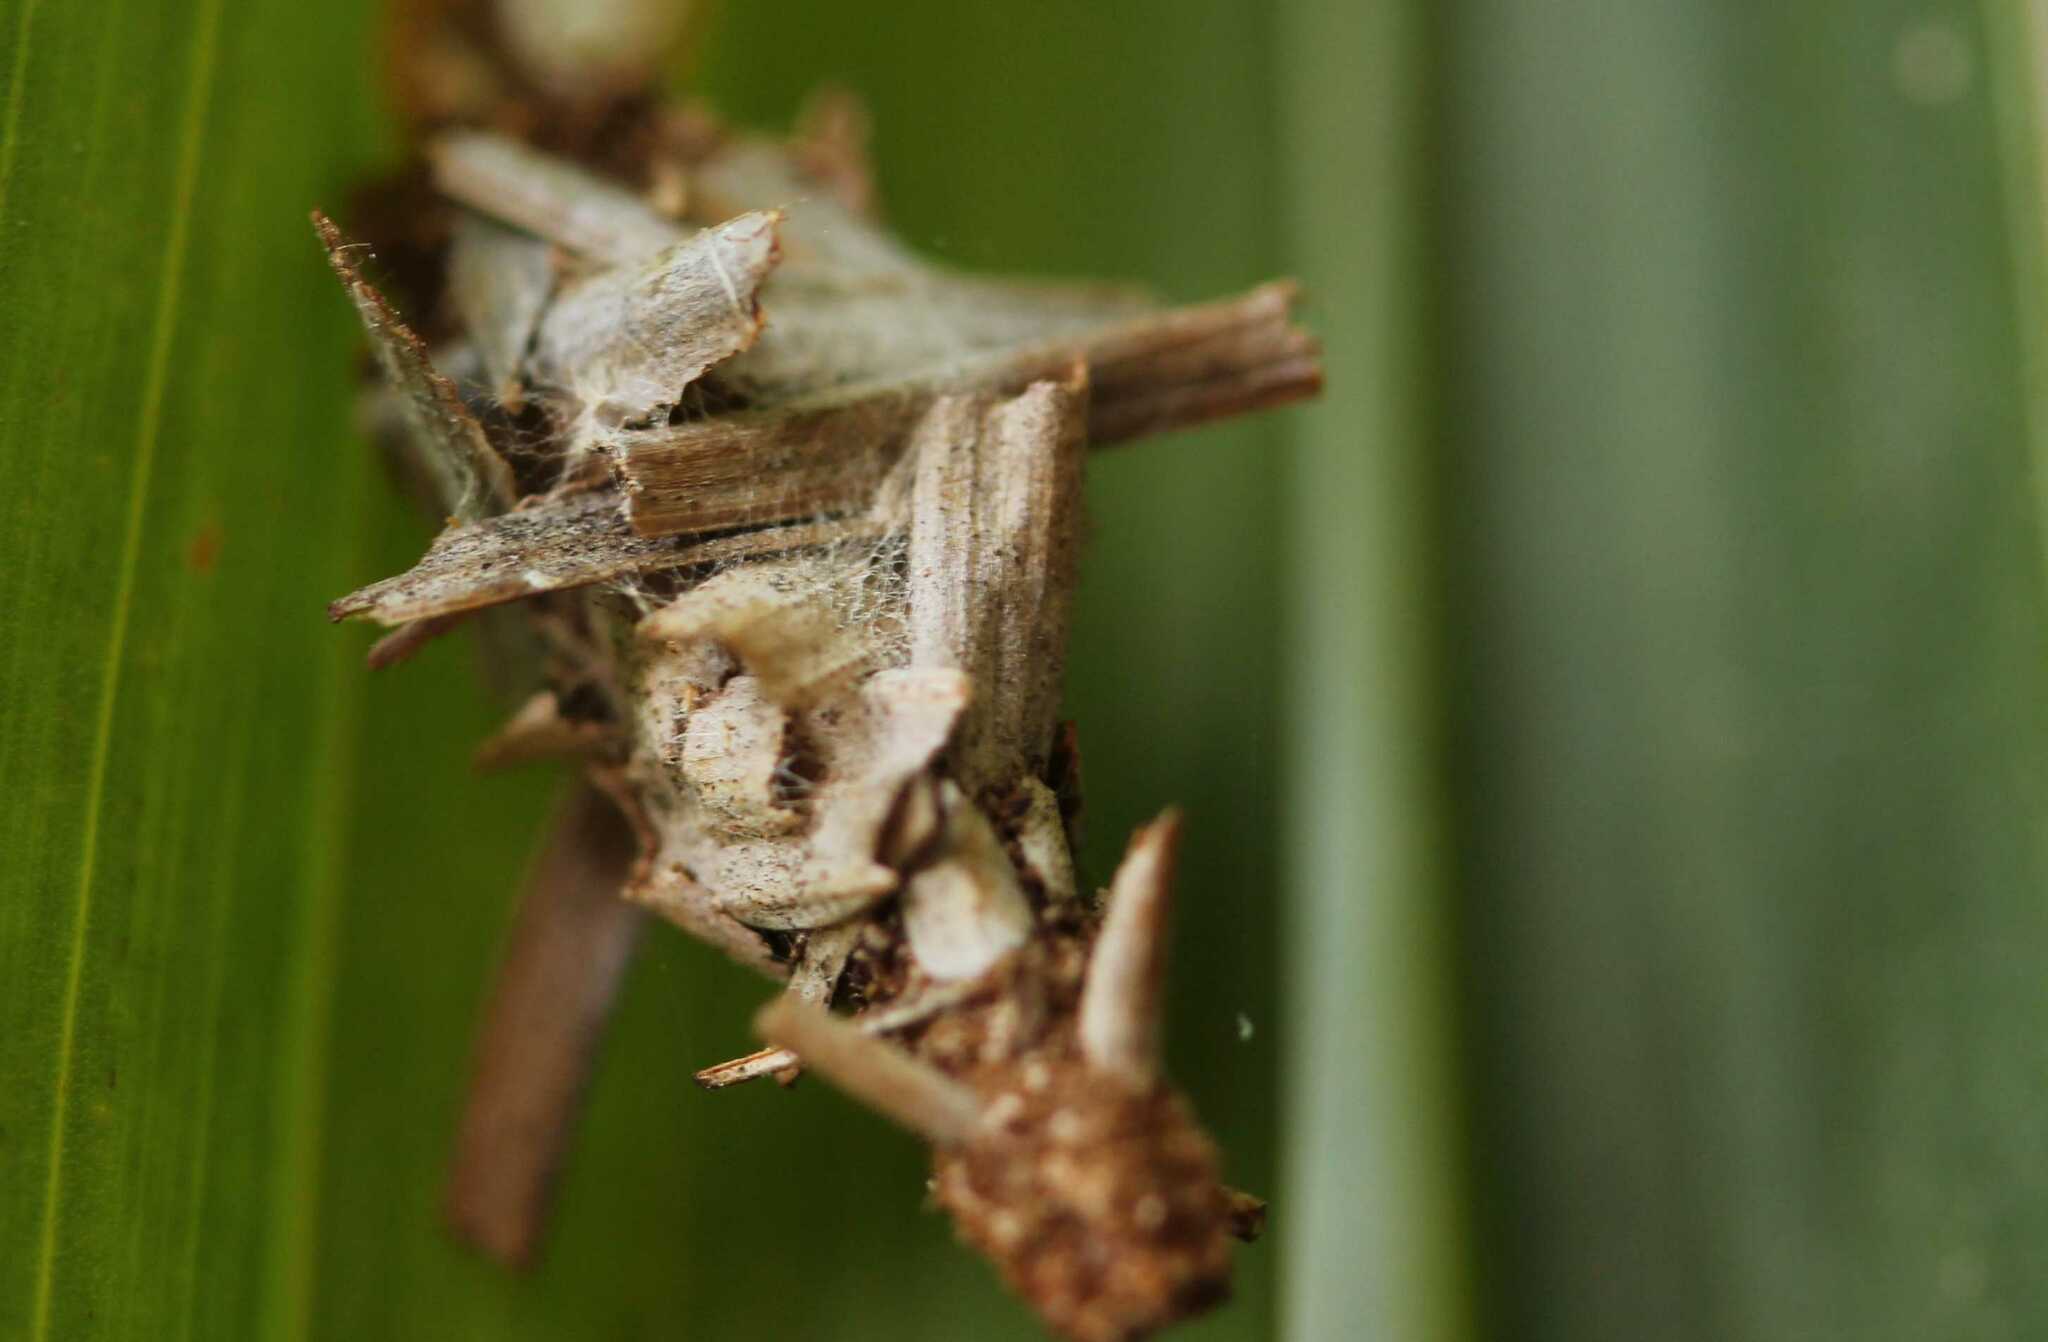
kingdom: Animalia
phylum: Arthropoda
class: Insecta
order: Lepidoptera
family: Psychidae
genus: Oiketicus
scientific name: Oiketicus
